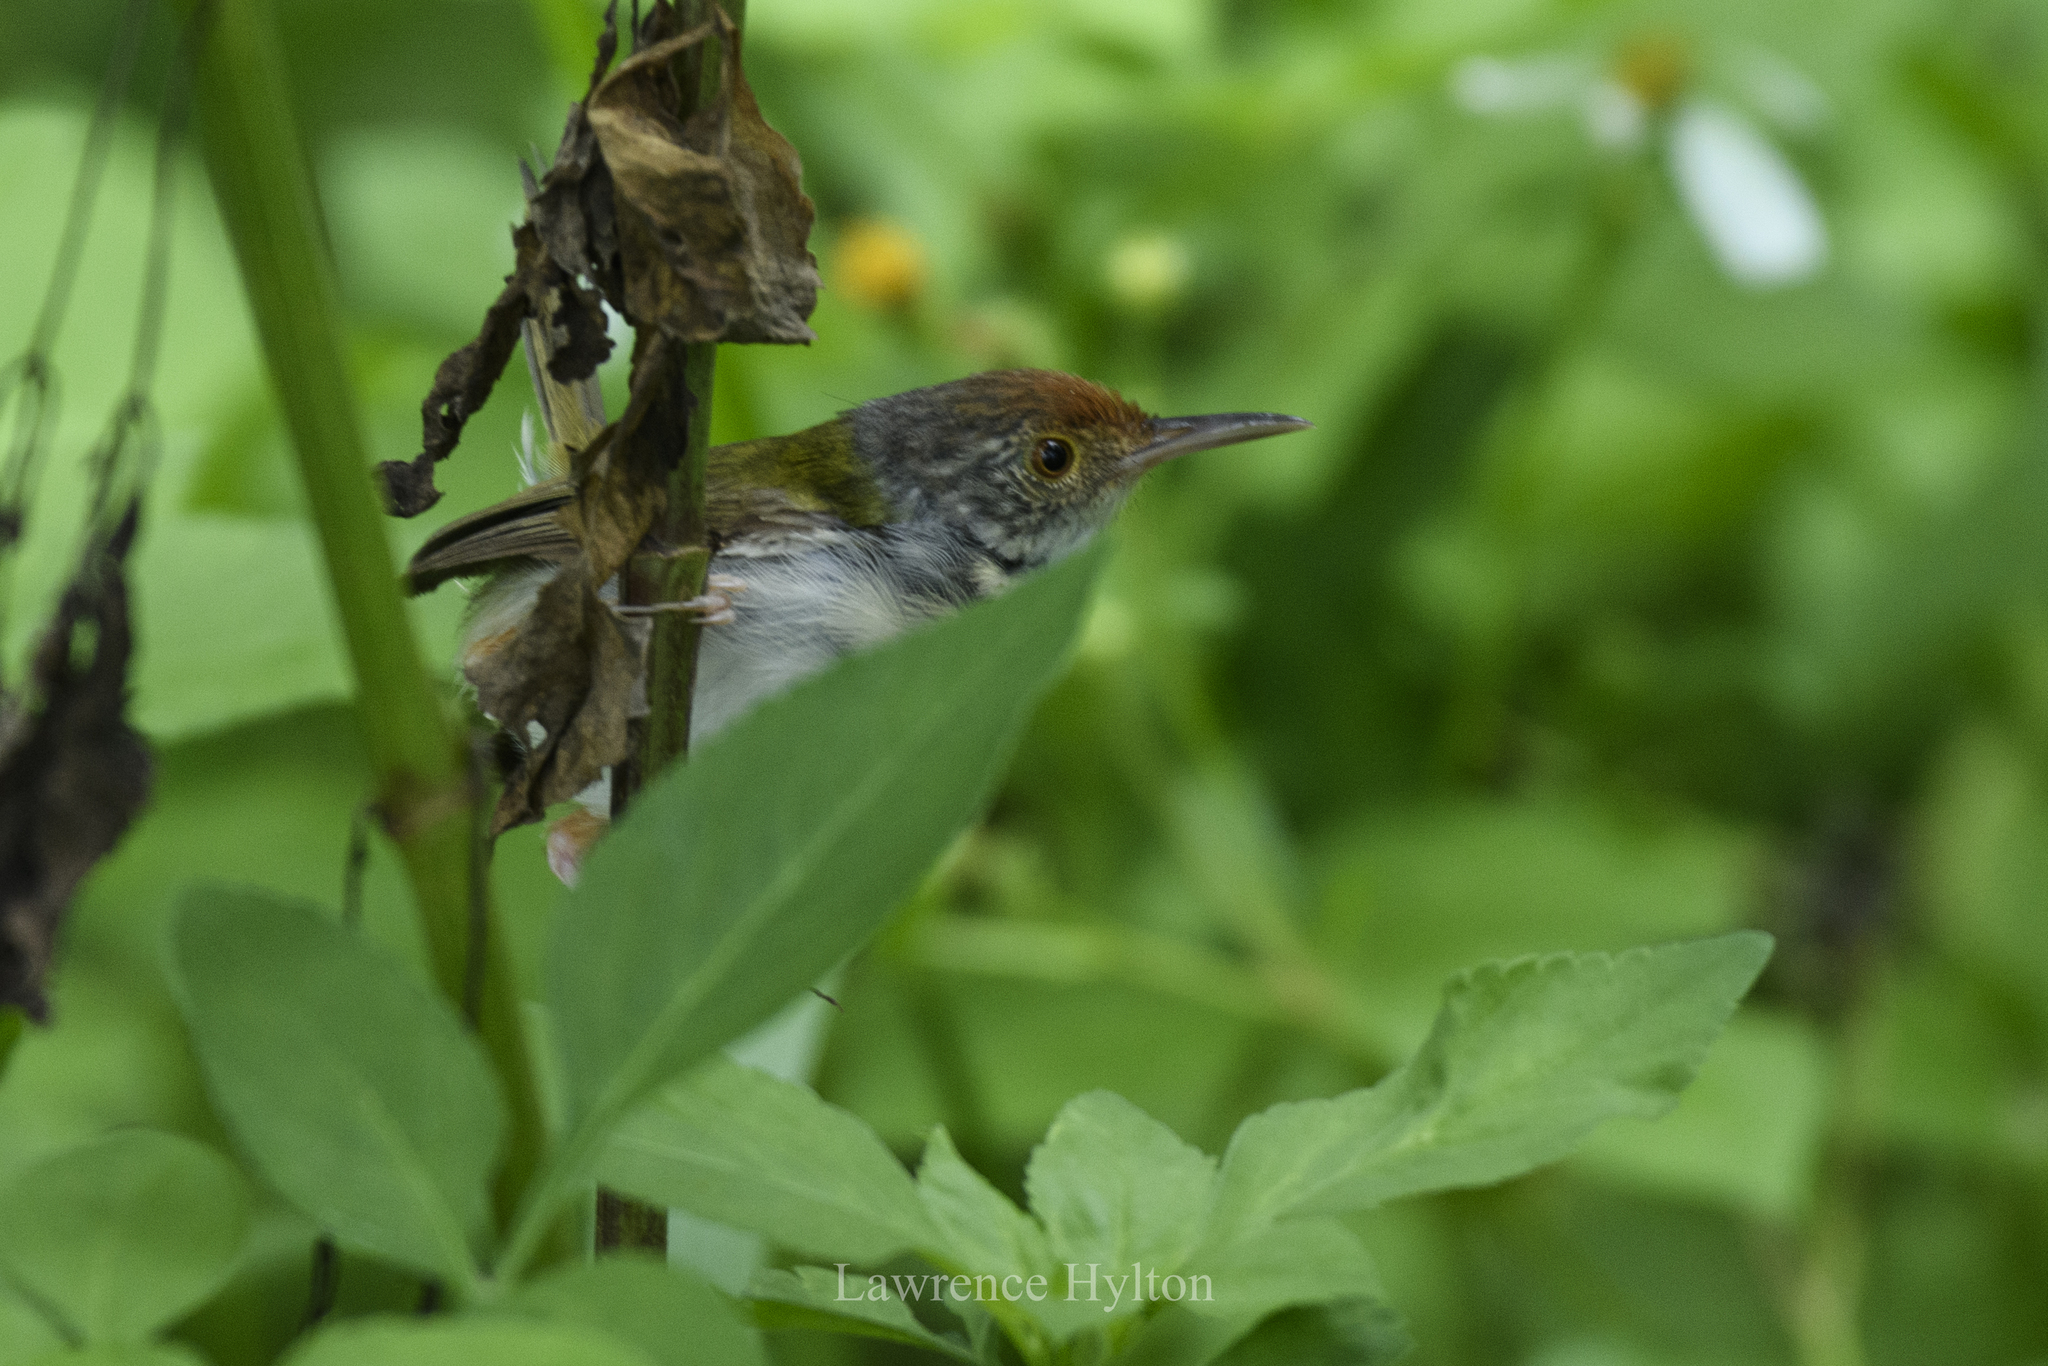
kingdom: Animalia
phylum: Chordata
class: Aves
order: Passeriformes
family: Cisticolidae
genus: Orthotomus
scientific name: Orthotomus sutorius
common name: Common tailorbird
